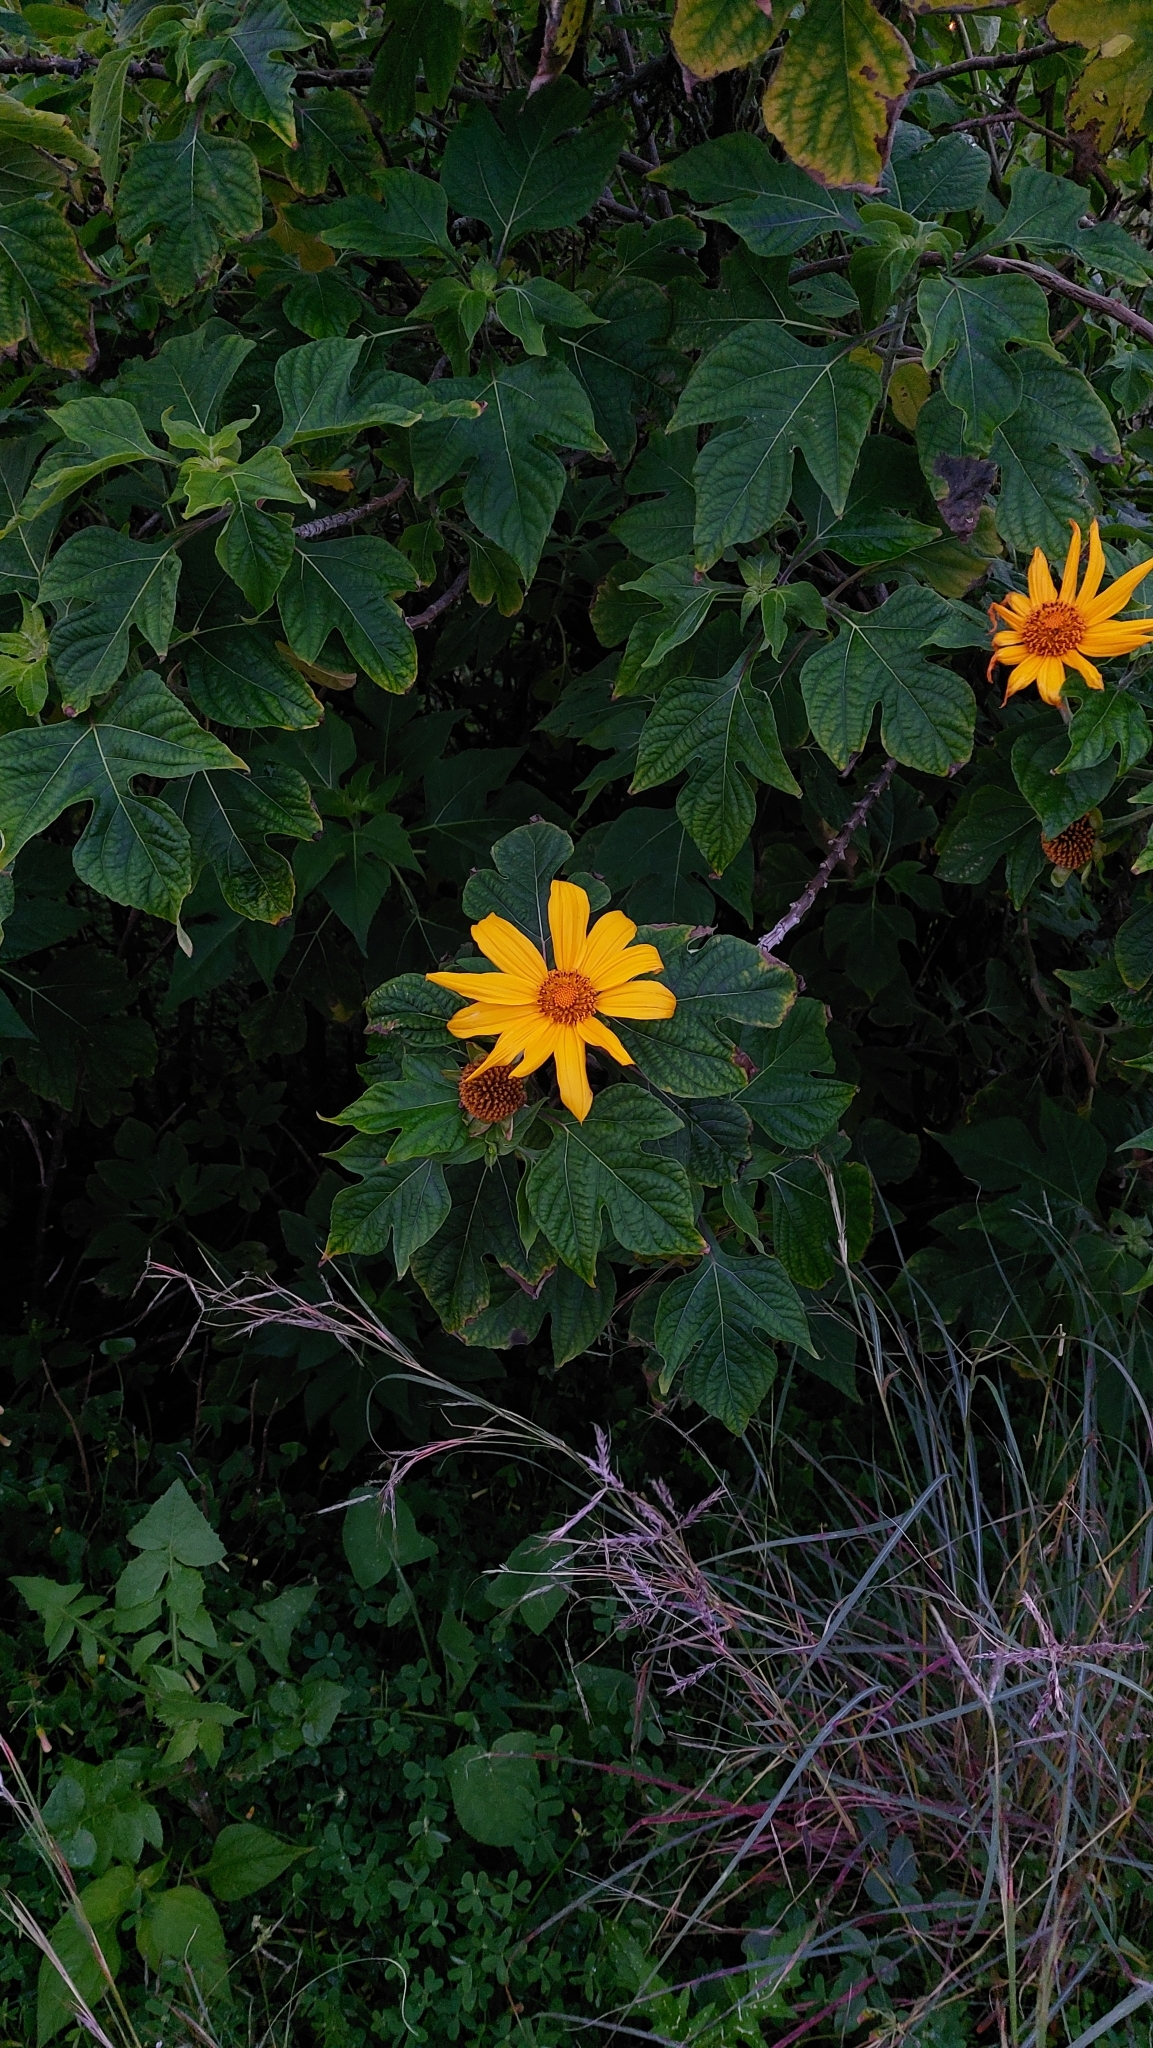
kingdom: Plantae
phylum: Tracheophyta
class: Magnoliopsida
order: Asterales
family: Asteraceae
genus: Tithonia
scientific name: Tithonia diversifolia
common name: Tree marigold
